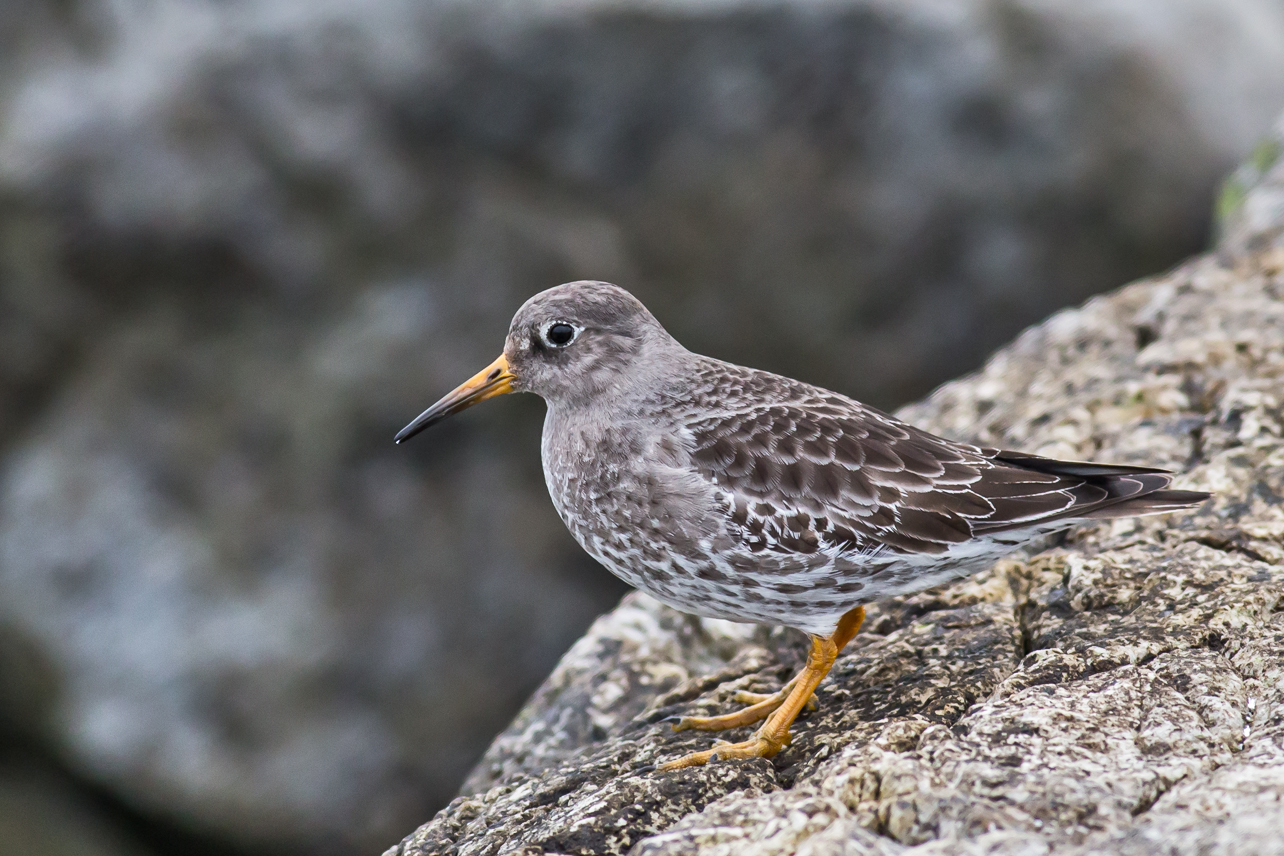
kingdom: Animalia
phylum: Chordata
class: Aves
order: Charadriiformes
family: Scolopacidae
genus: Calidris
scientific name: Calidris maritima
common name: Purple sandpiper
